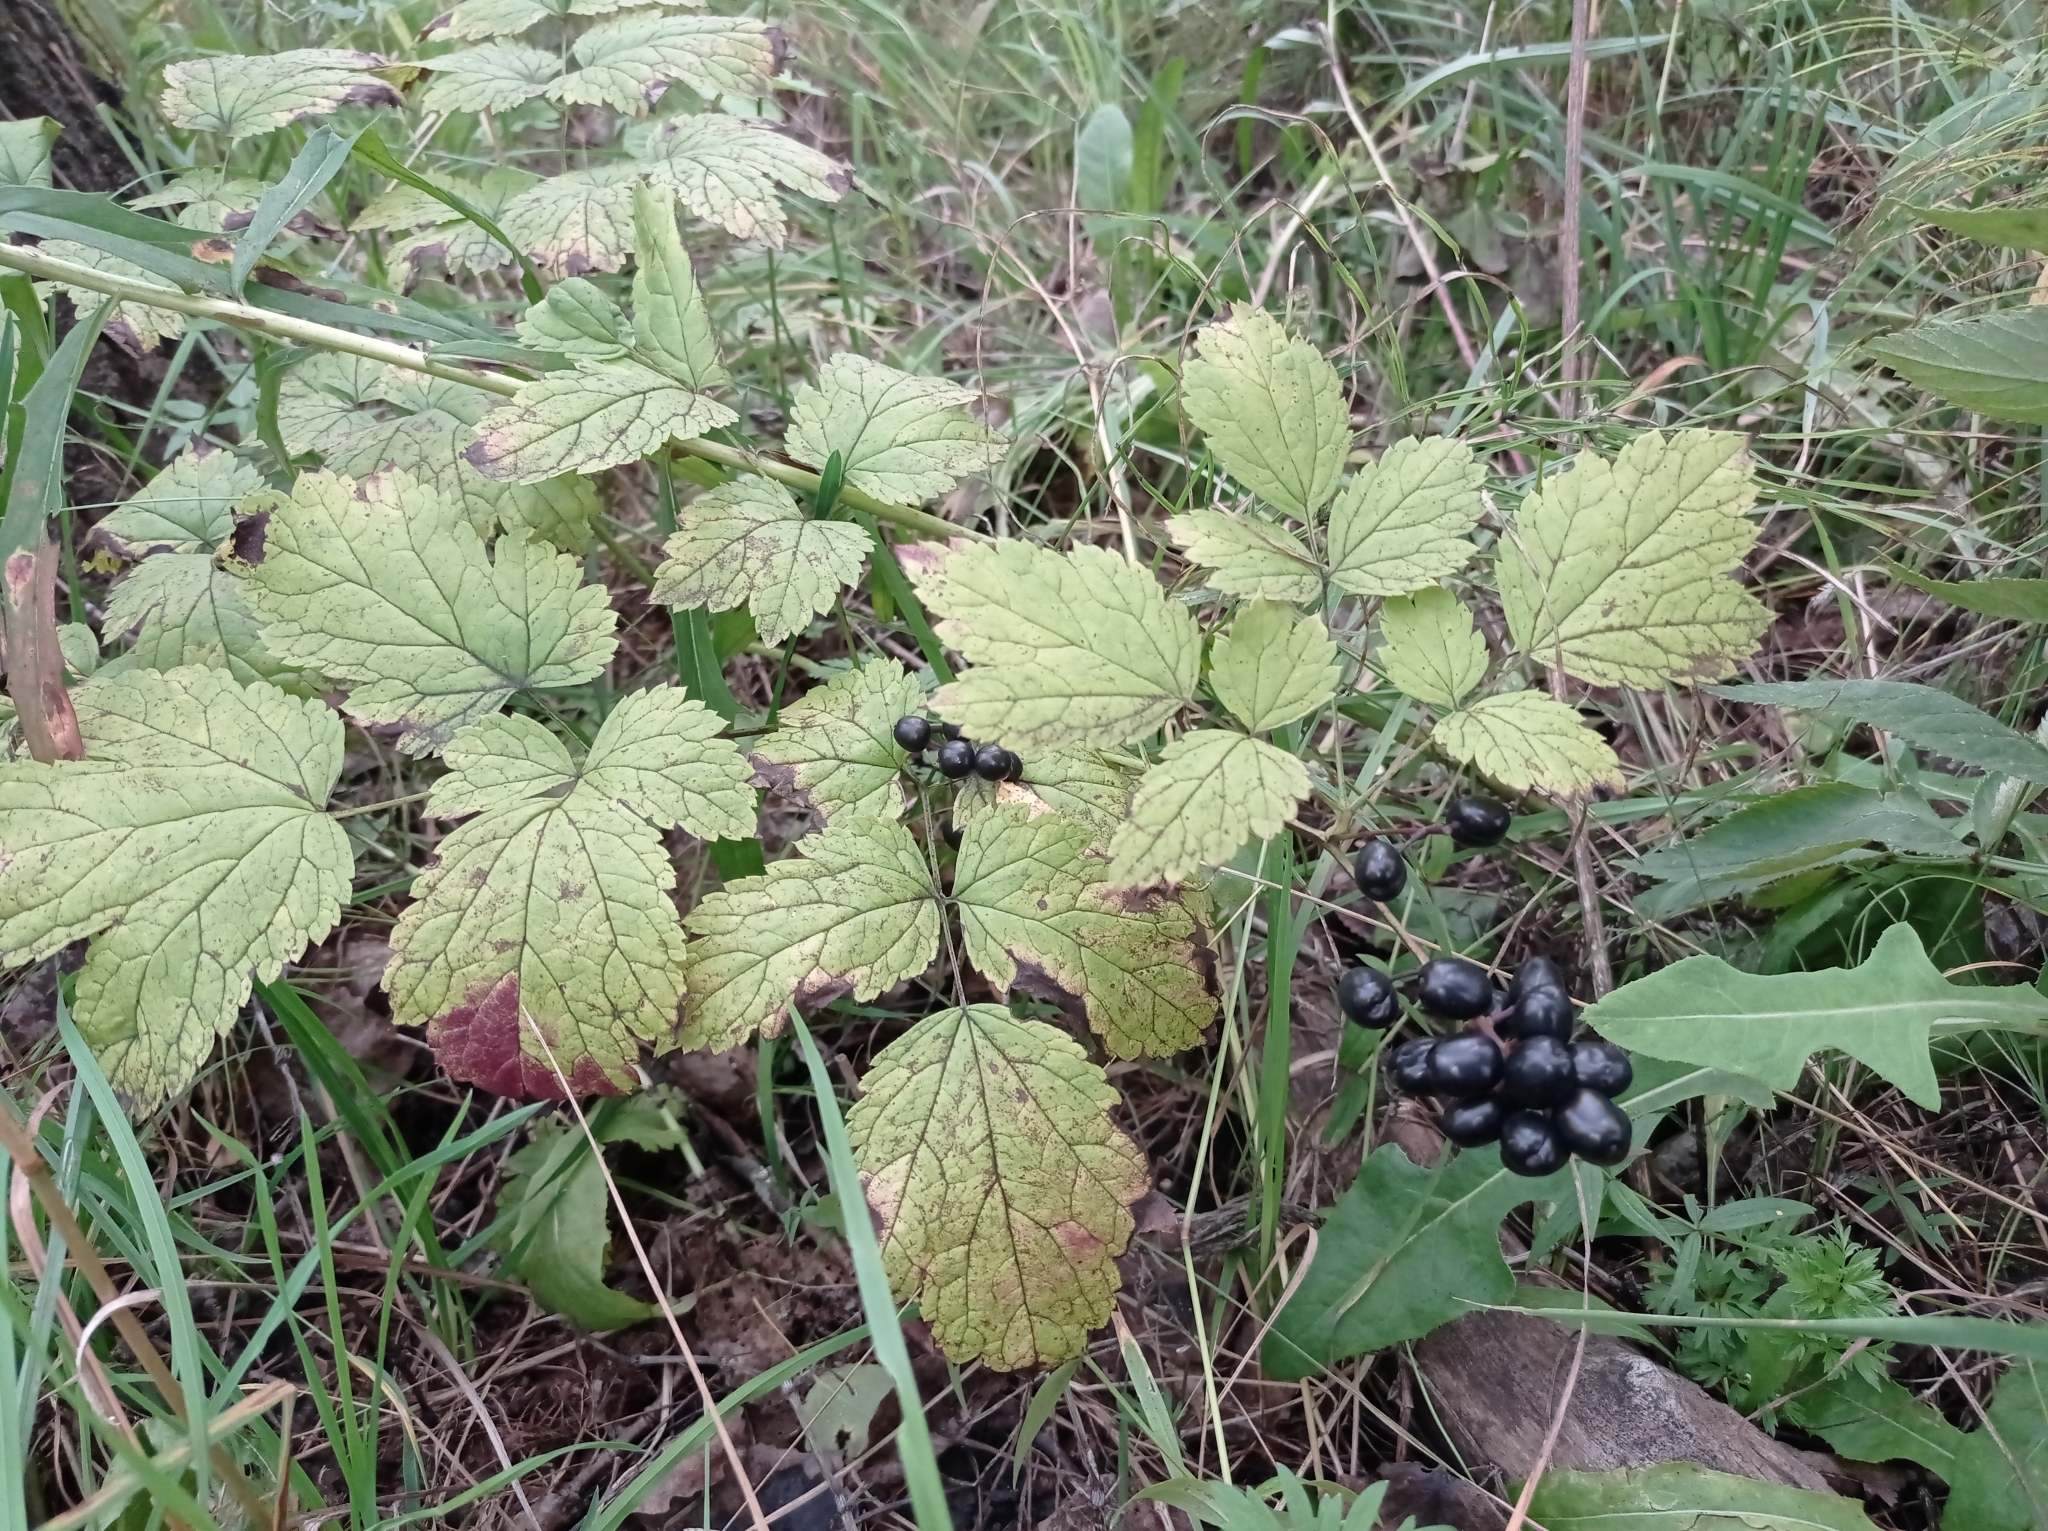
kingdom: Plantae
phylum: Tracheophyta
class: Magnoliopsida
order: Ranunculales
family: Ranunculaceae
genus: Actaea
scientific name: Actaea spicata
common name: Baneberry
